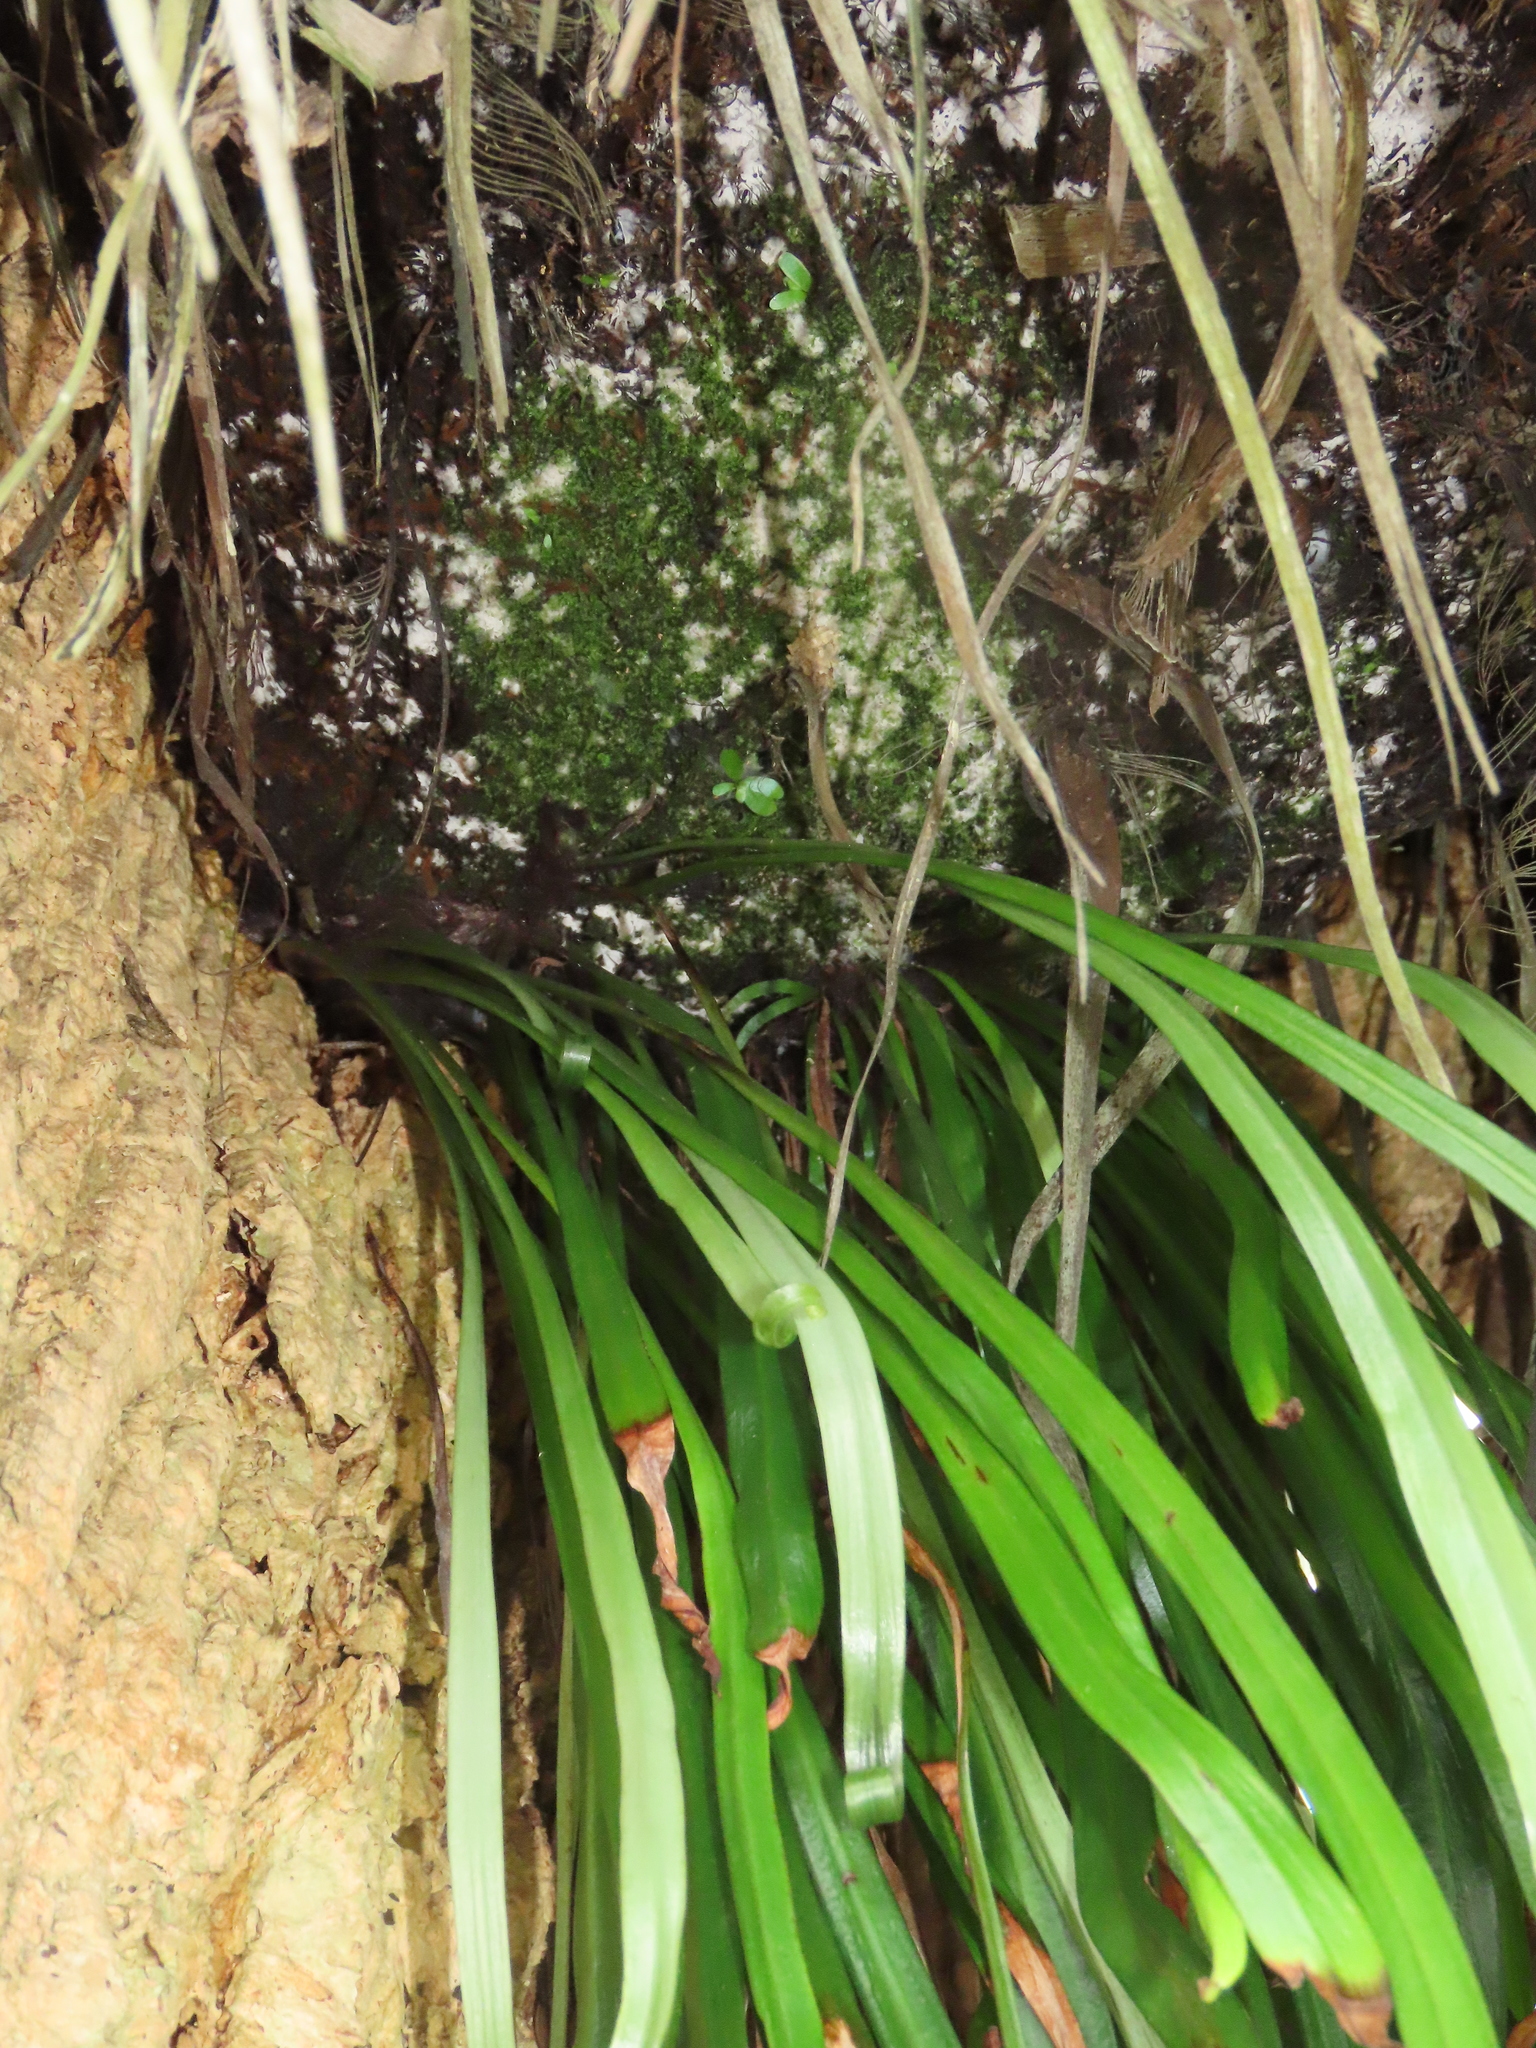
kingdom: Plantae
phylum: Tracheophyta
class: Polypodiopsida
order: Polypodiales
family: Pteridaceae
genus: Haplopteris
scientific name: Haplopteris elongata
